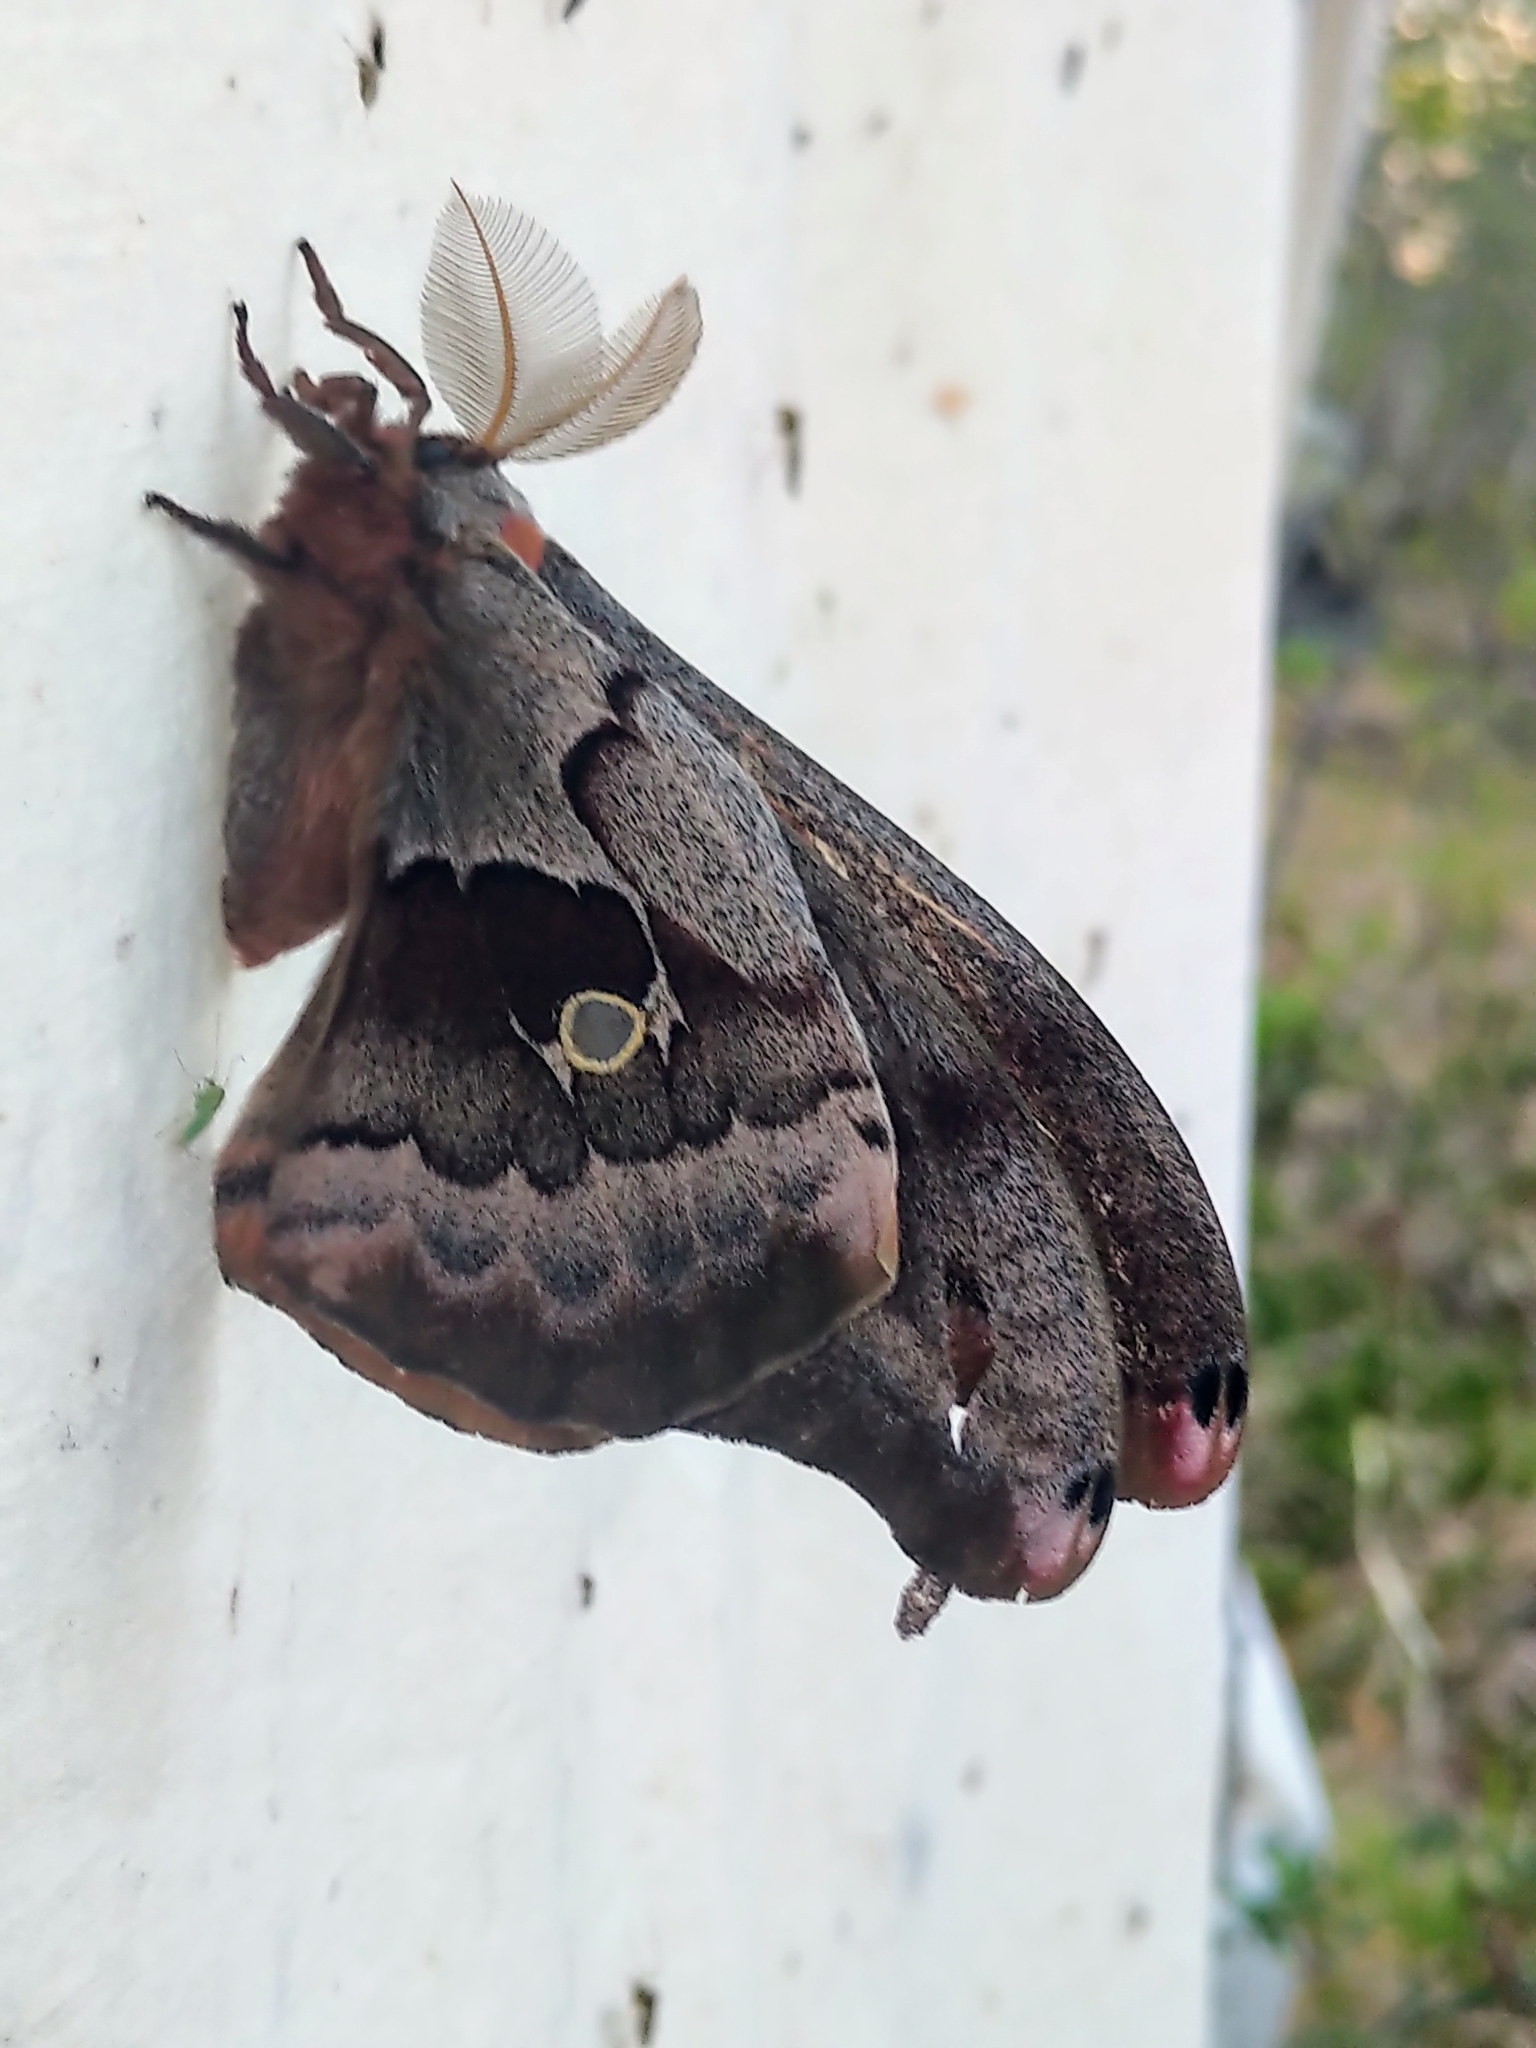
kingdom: Animalia
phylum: Arthropoda
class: Insecta
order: Lepidoptera
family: Saturniidae
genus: Antheraea
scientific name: Antheraea polyphemus
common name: Polyphemus moth
